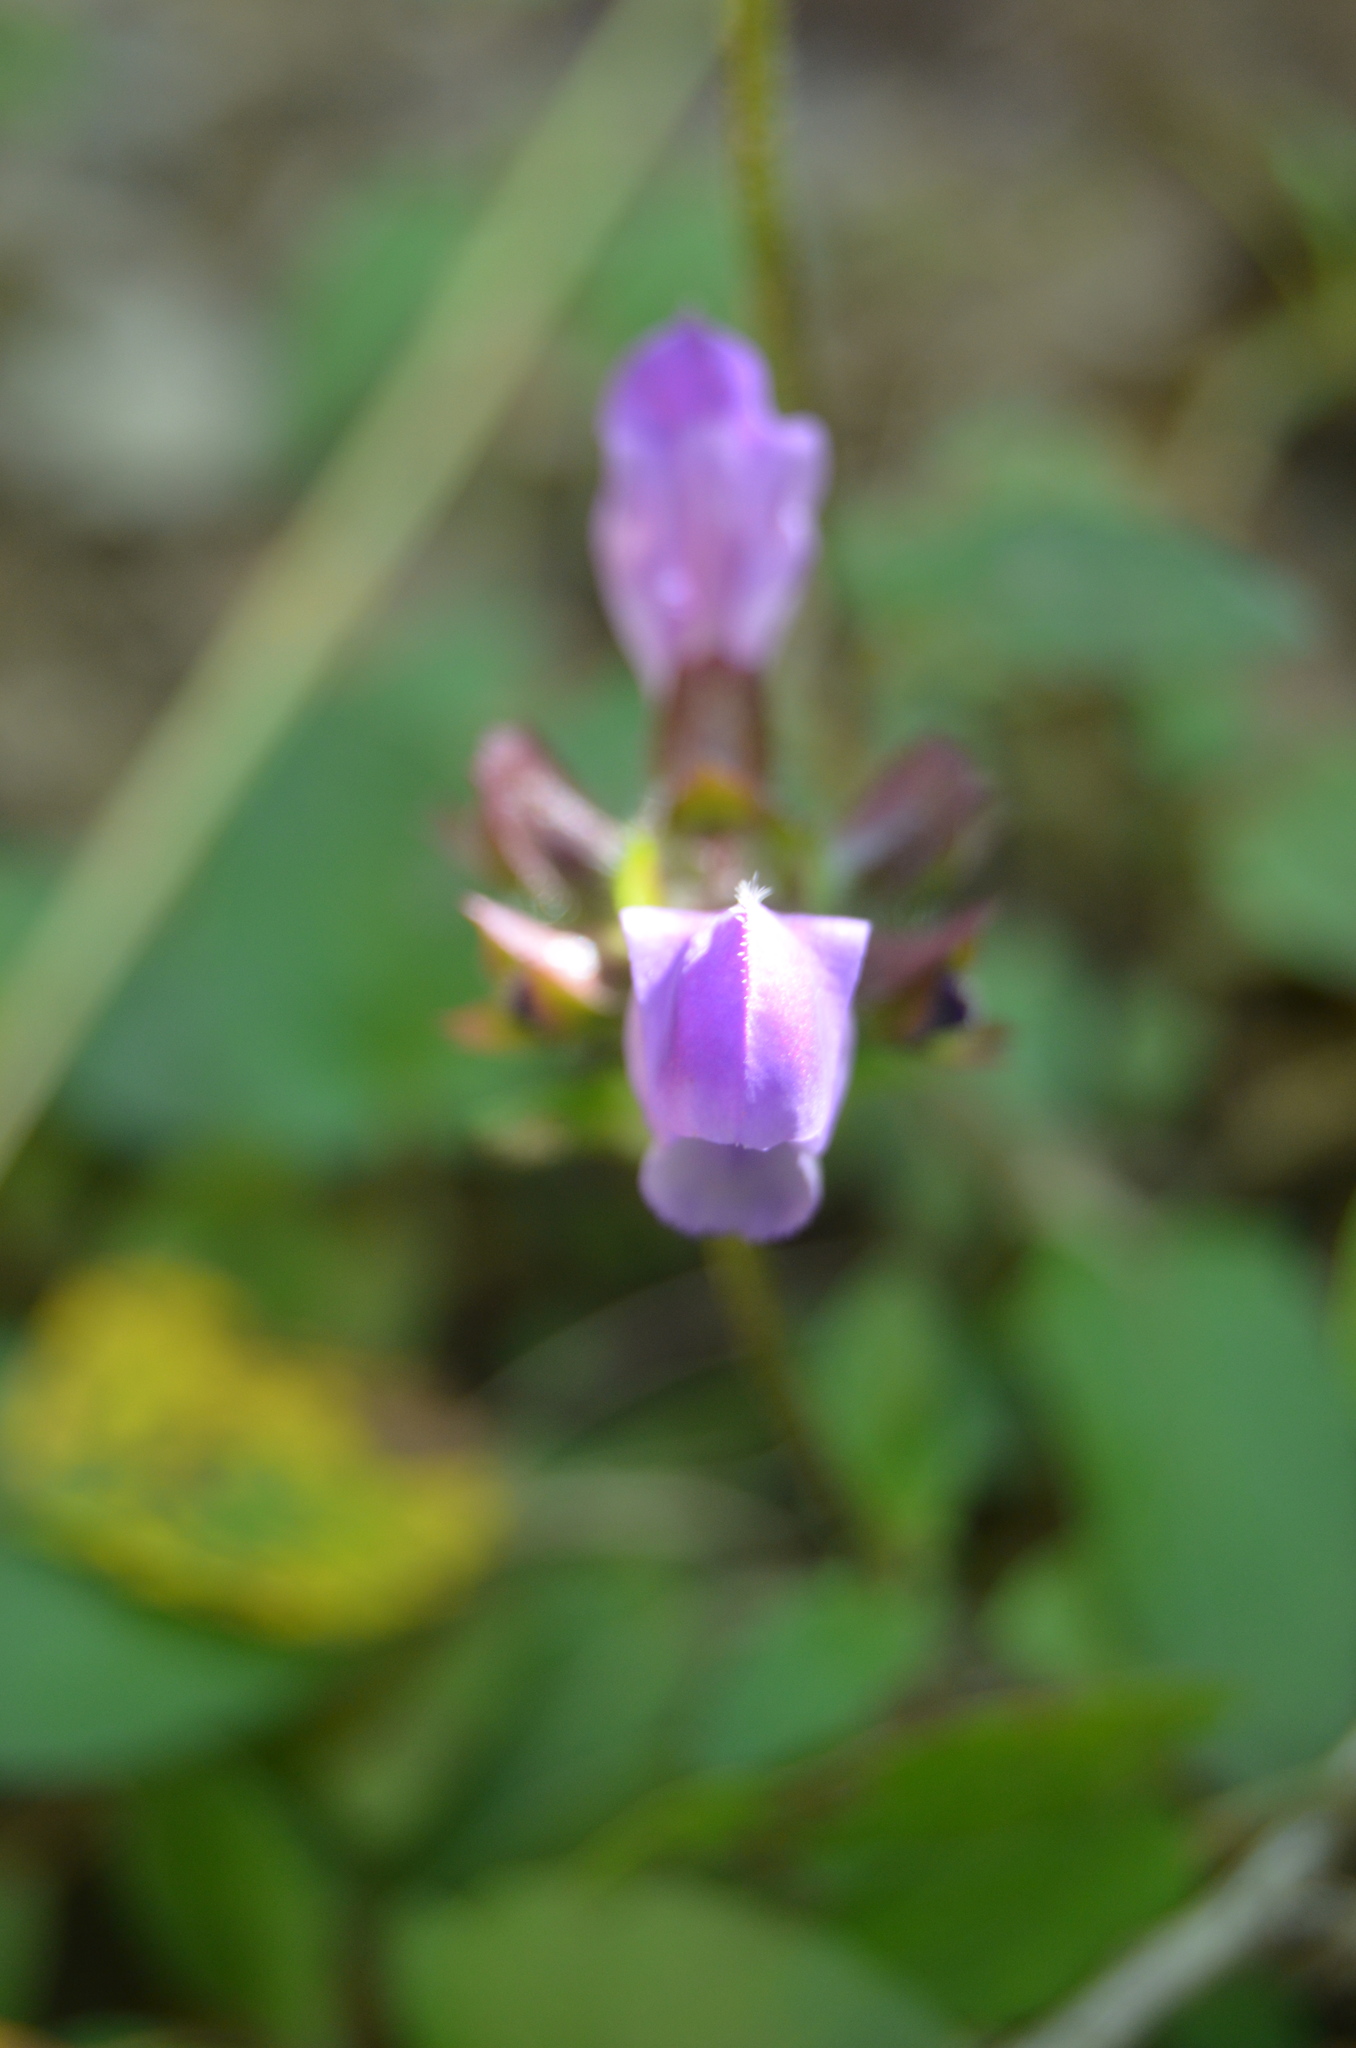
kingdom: Plantae
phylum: Tracheophyta
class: Magnoliopsida
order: Lamiales
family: Lamiaceae
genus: Prunella
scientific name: Prunella vulgaris
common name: Heal-all
